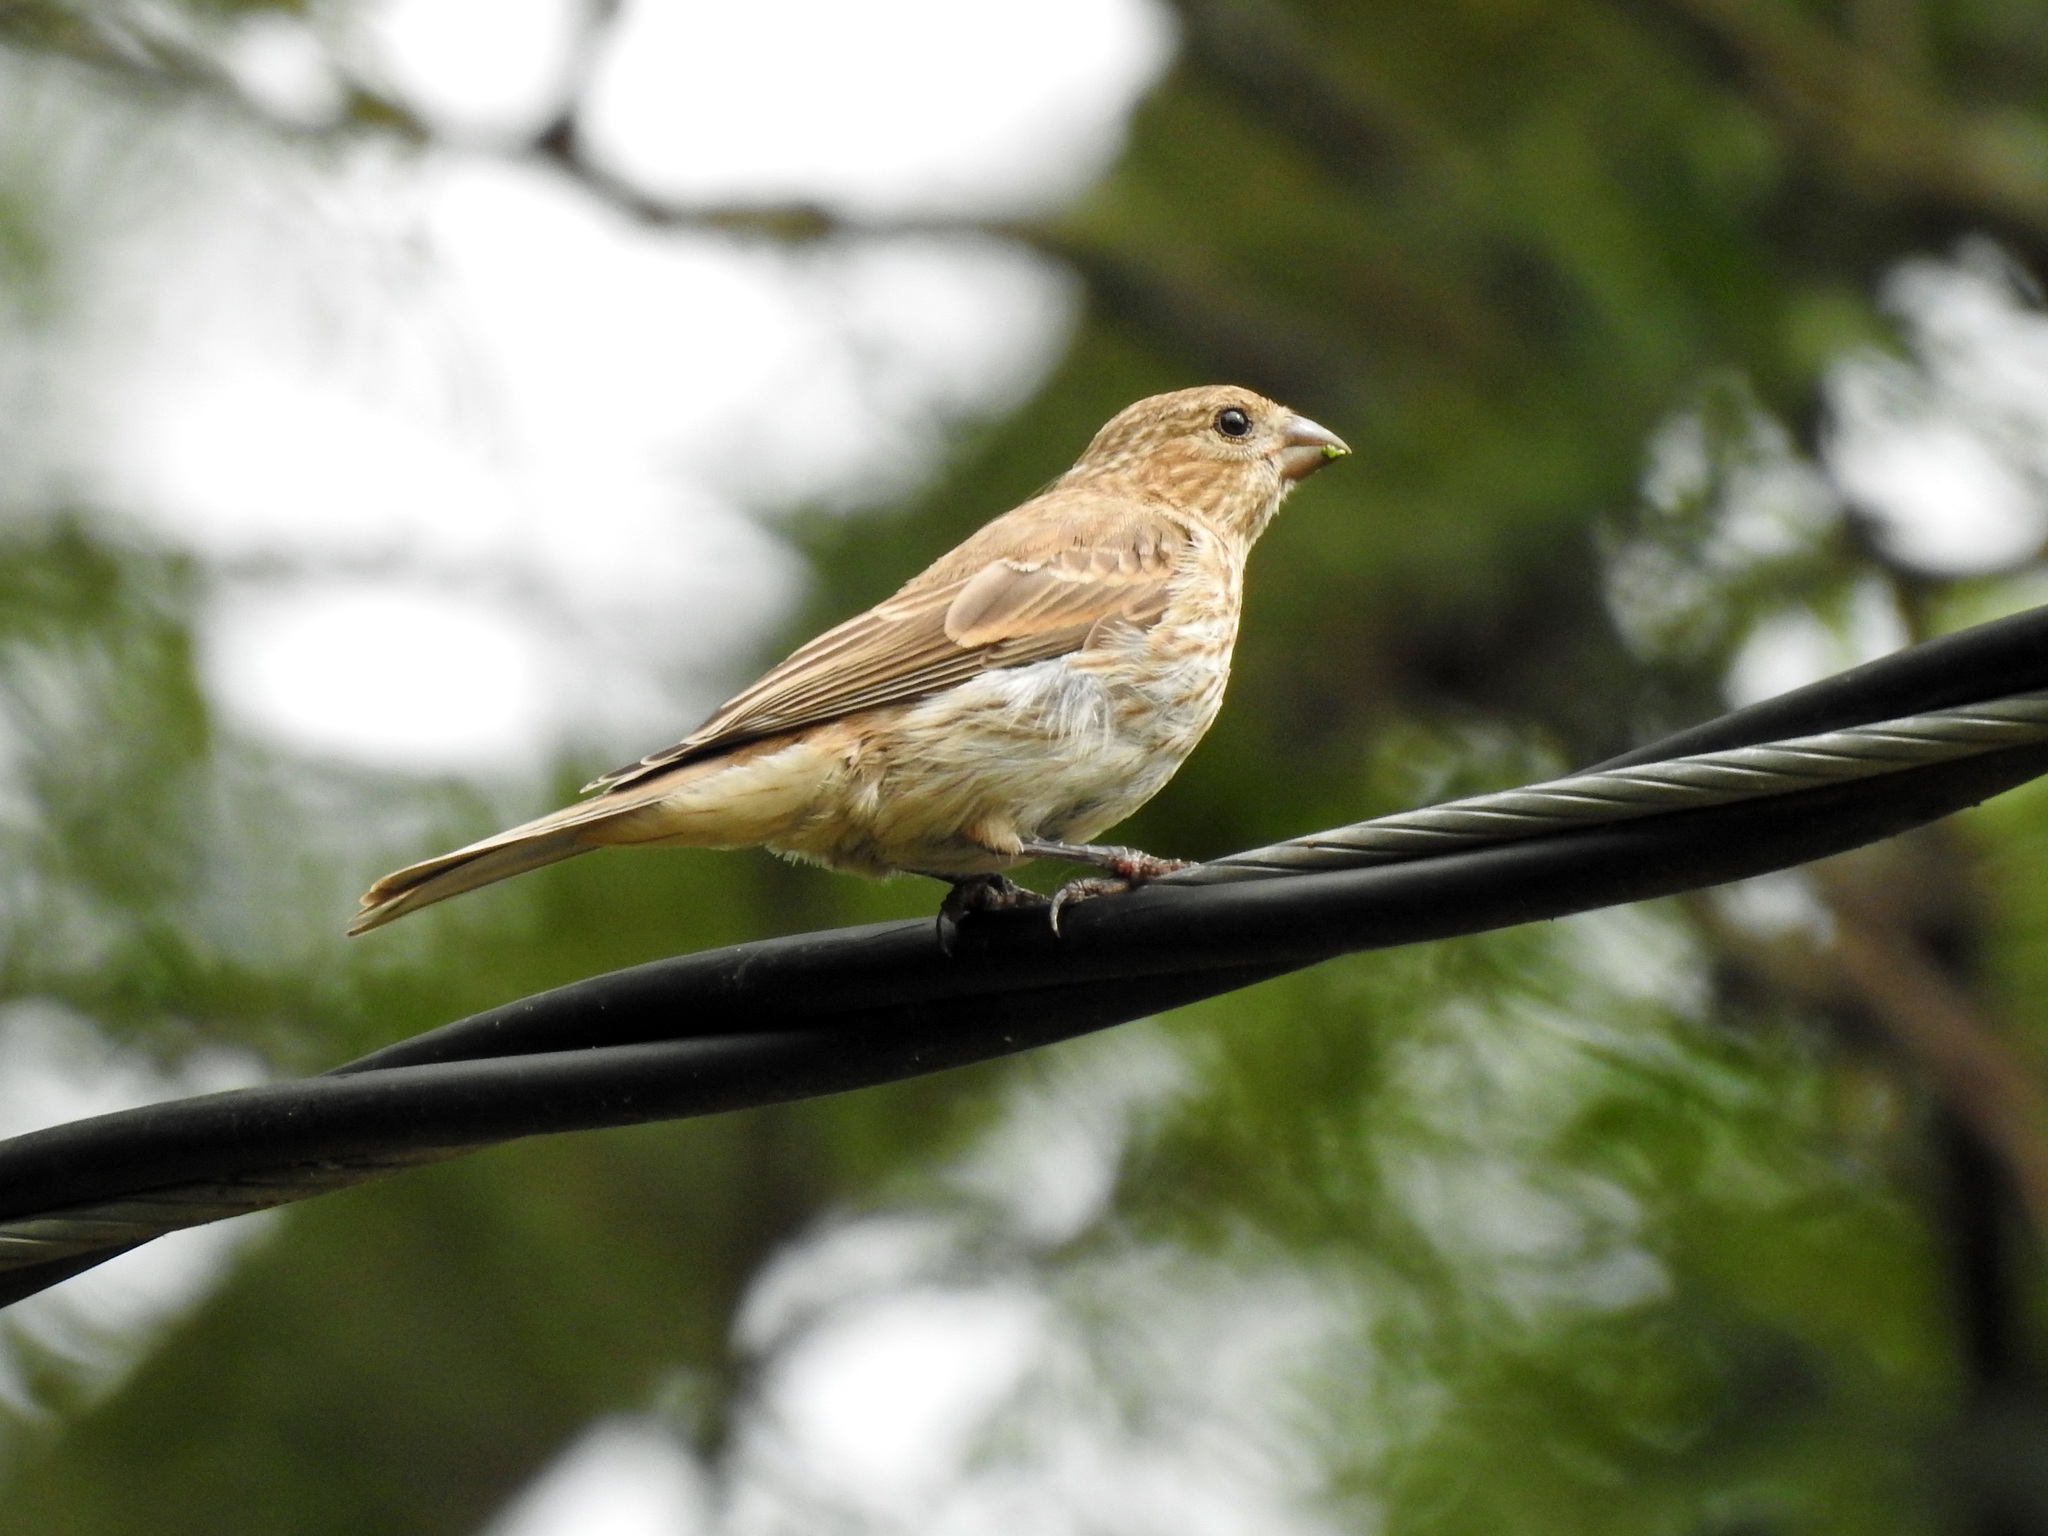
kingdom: Animalia
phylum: Chordata
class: Aves
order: Passeriformes
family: Fringillidae
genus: Haemorhous
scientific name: Haemorhous mexicanus
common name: House finch
